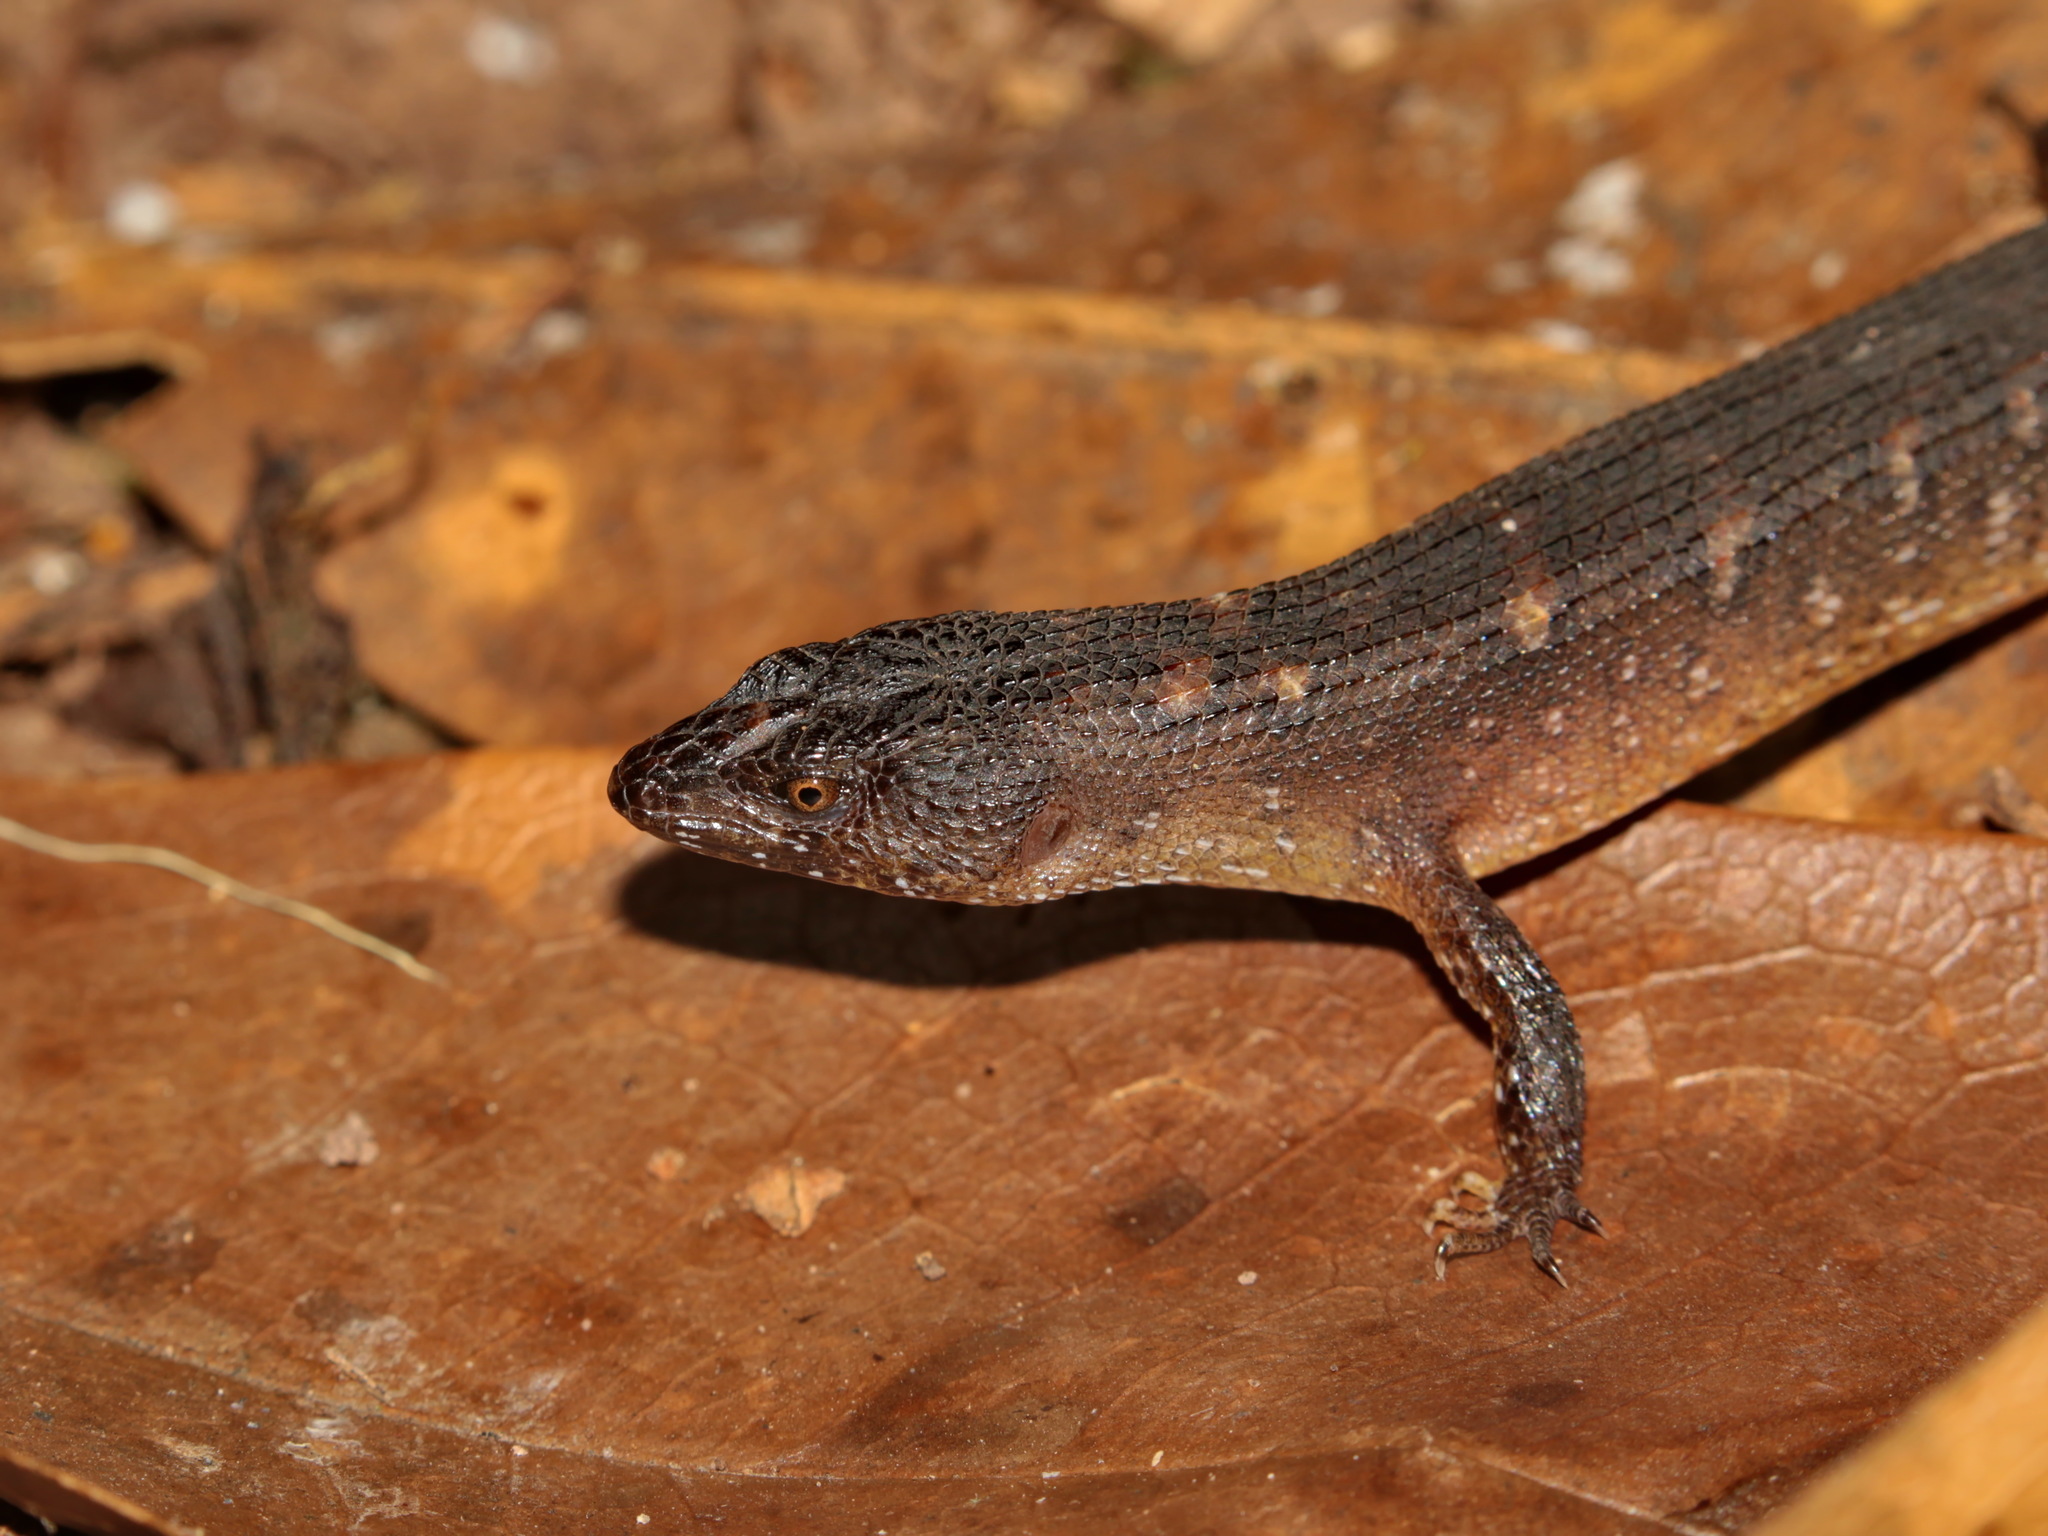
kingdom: Animalia
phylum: Chordata
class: Squamata
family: Scincidae
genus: Tropidophorus
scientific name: Tropidophorus thai
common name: Thai water skink
